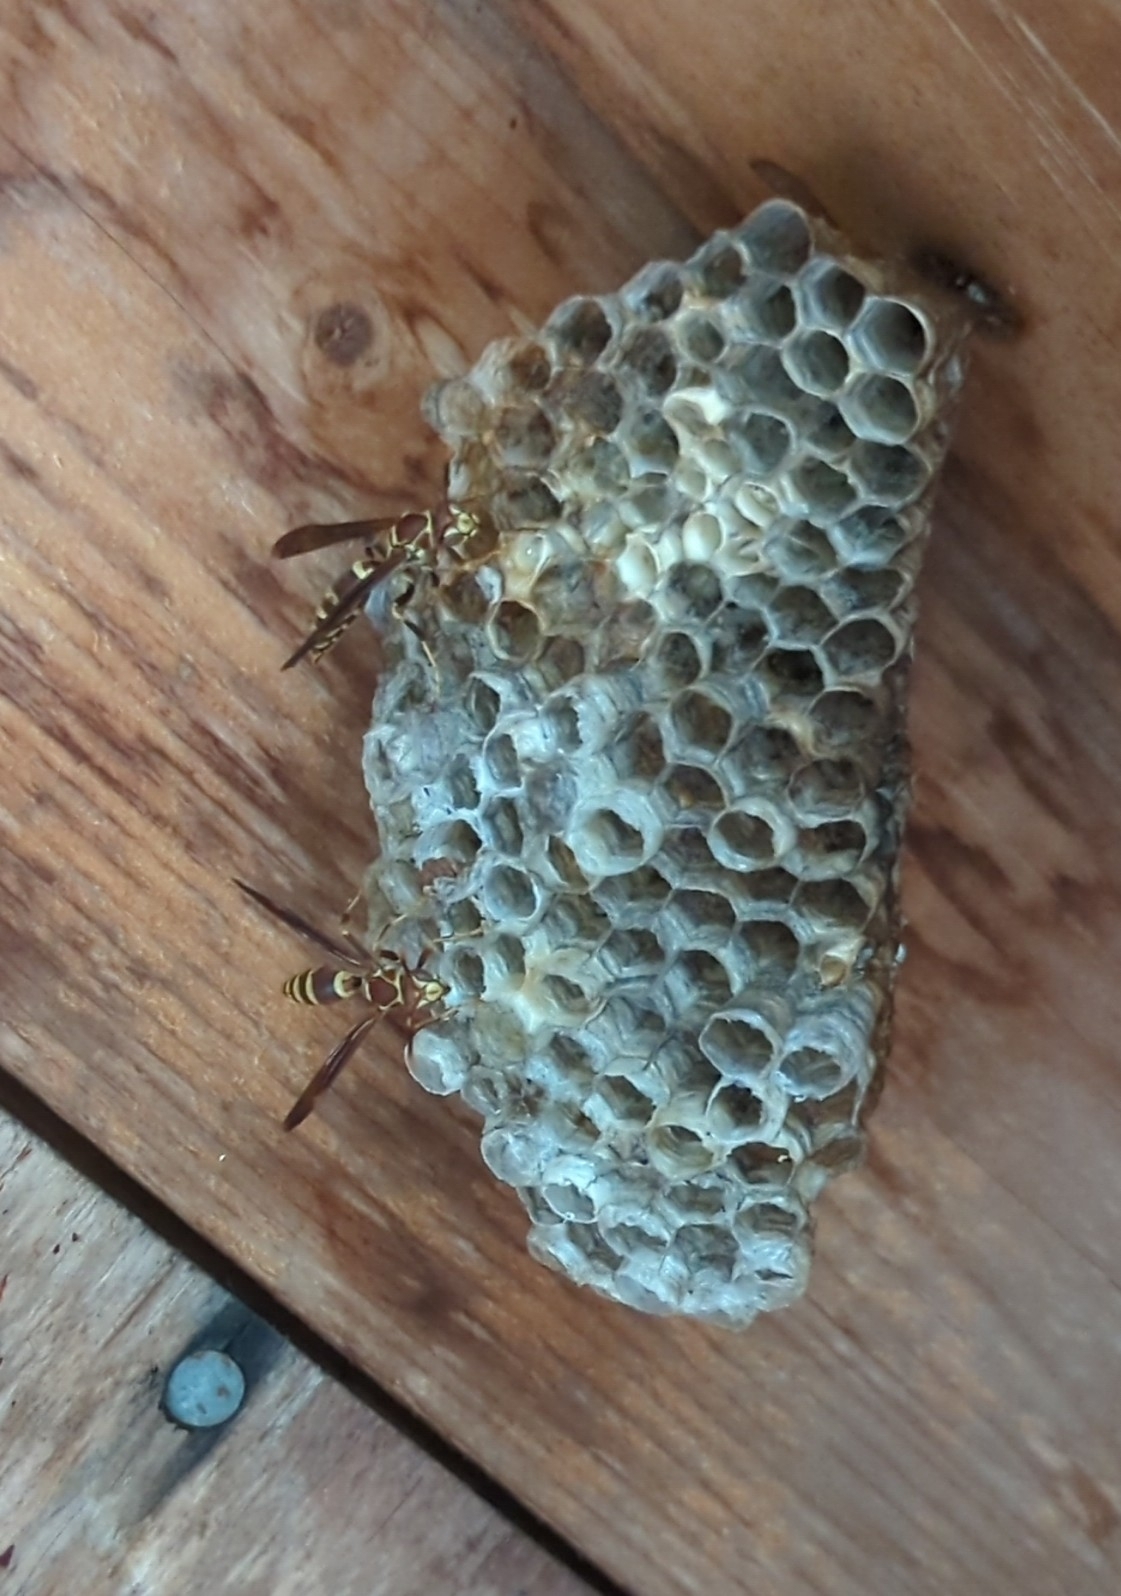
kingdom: Animalia
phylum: Arthropoda
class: Insecta
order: Hymenoptera
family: Eumenidae
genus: Polistes
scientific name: Polistes exclamans
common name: Paper wasp
